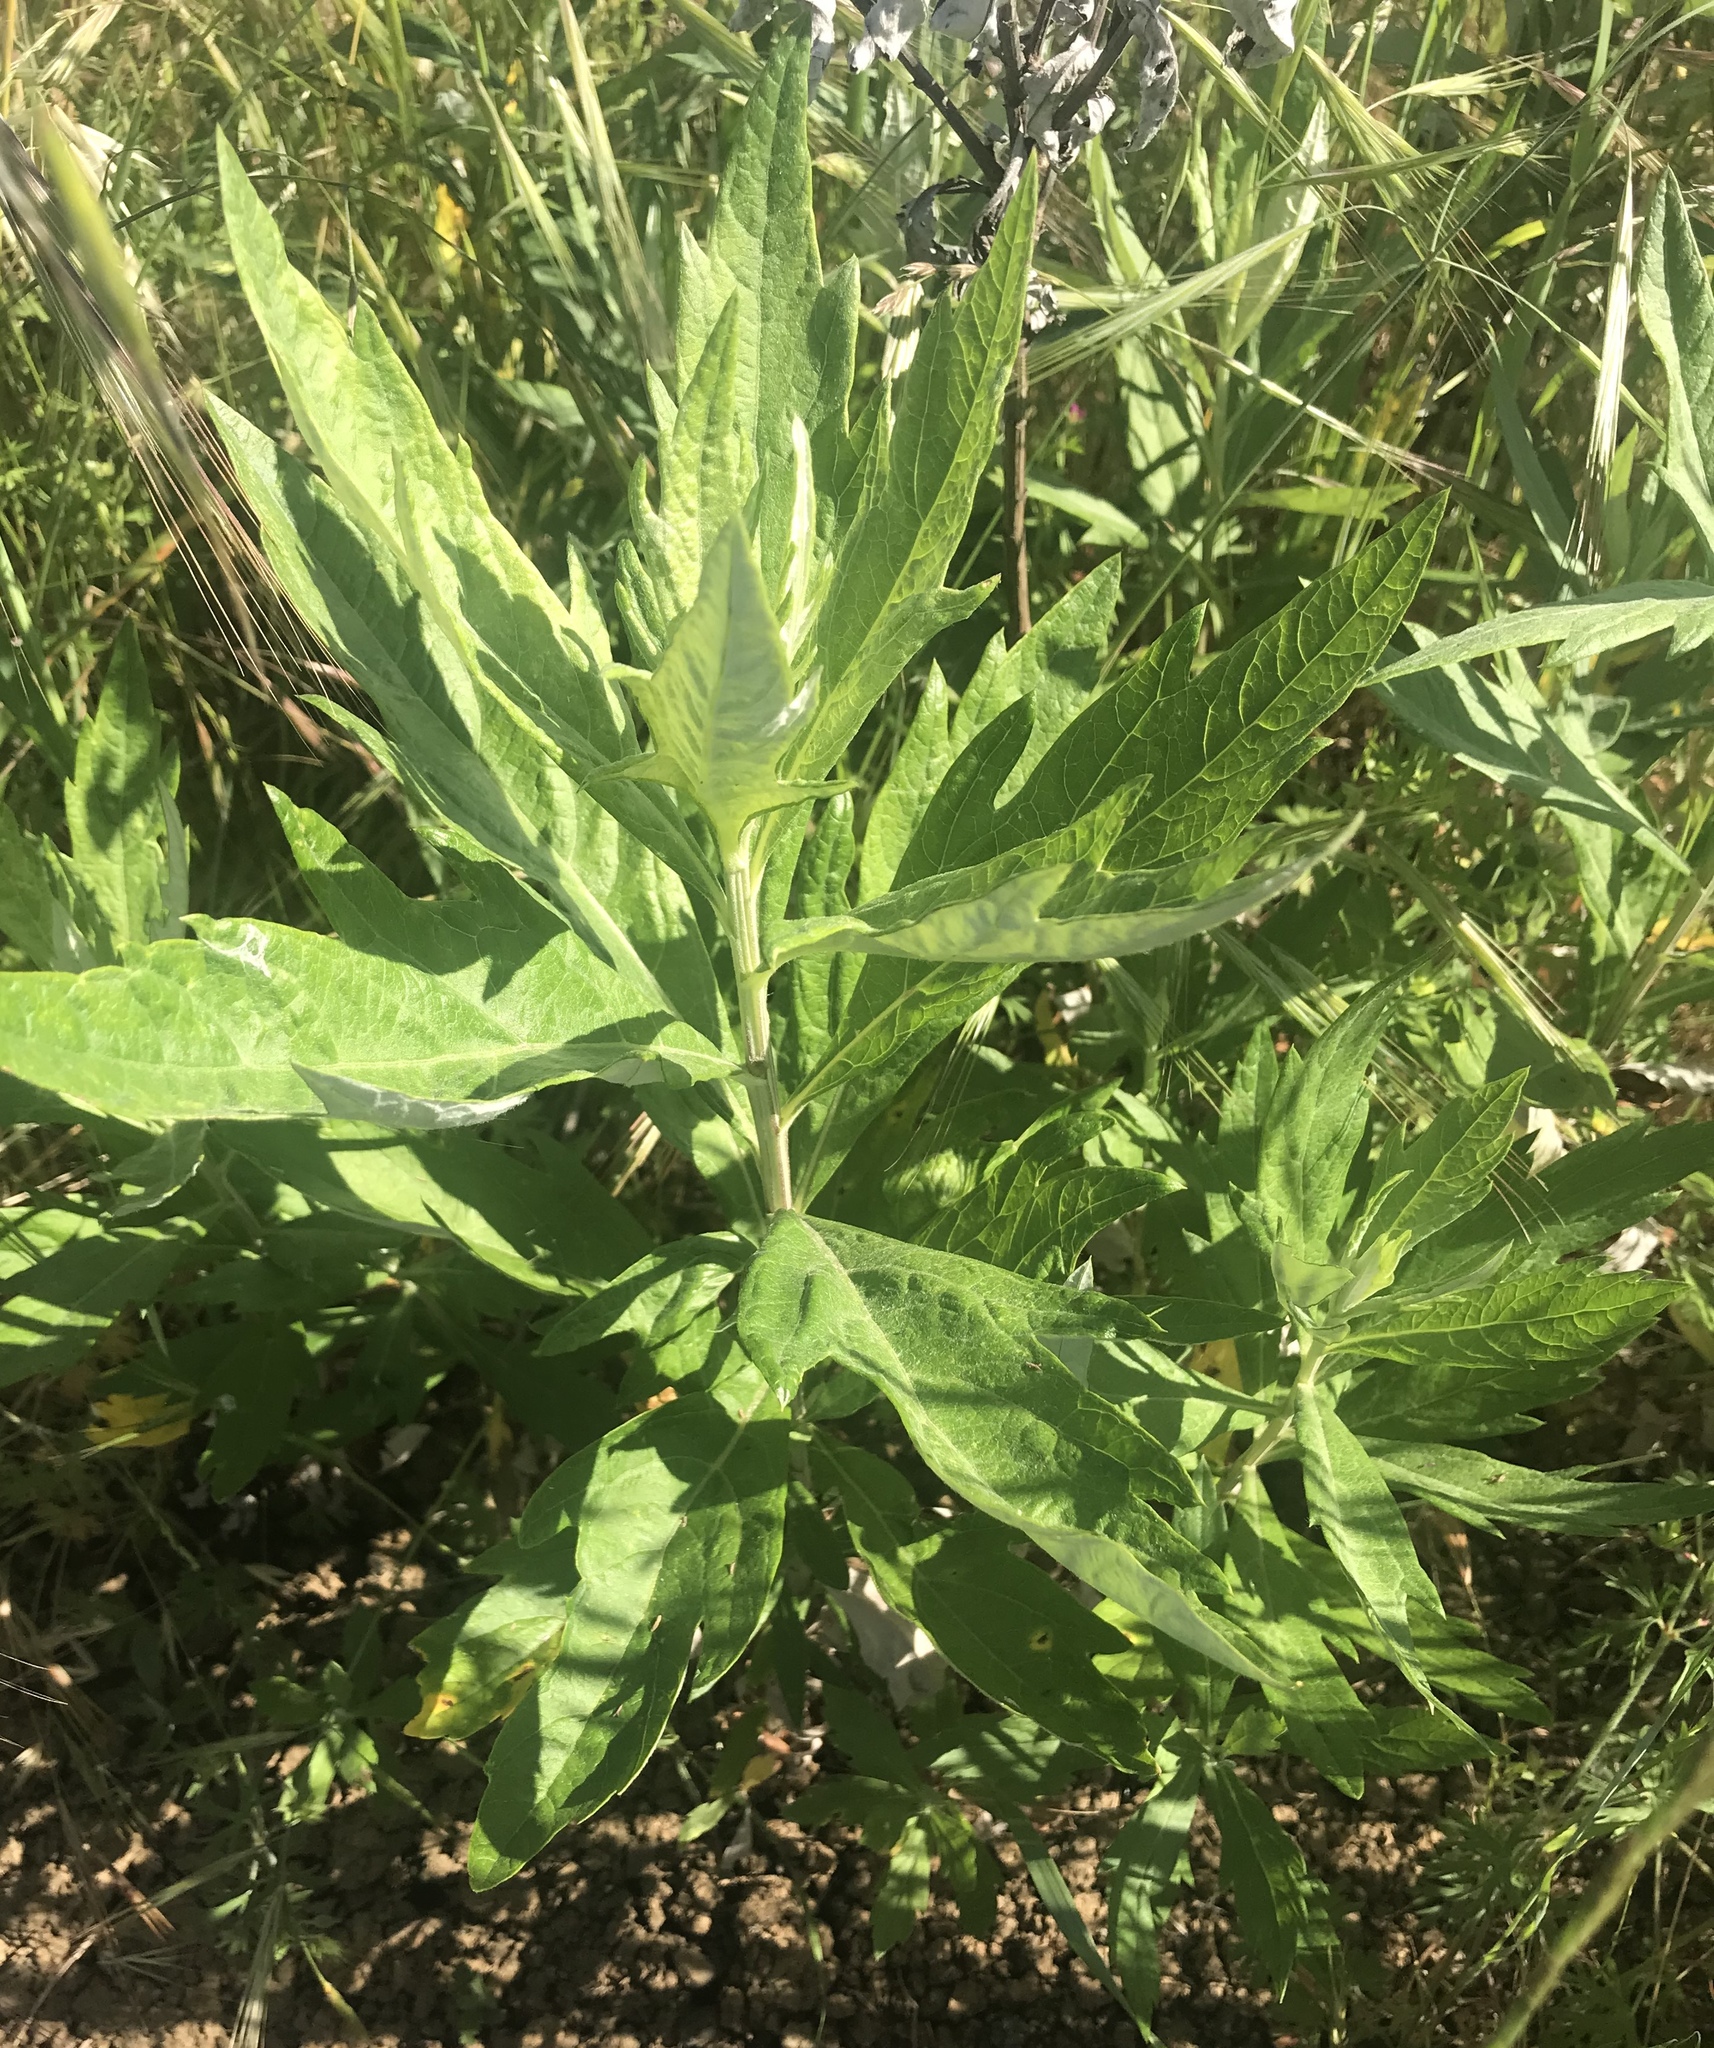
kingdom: Plantae
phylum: Tracheophyta
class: Magnoliopsida
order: Asterales
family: Asteraceae
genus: Artemisia
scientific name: Artemisia douglasiana
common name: Northwest mugwort
